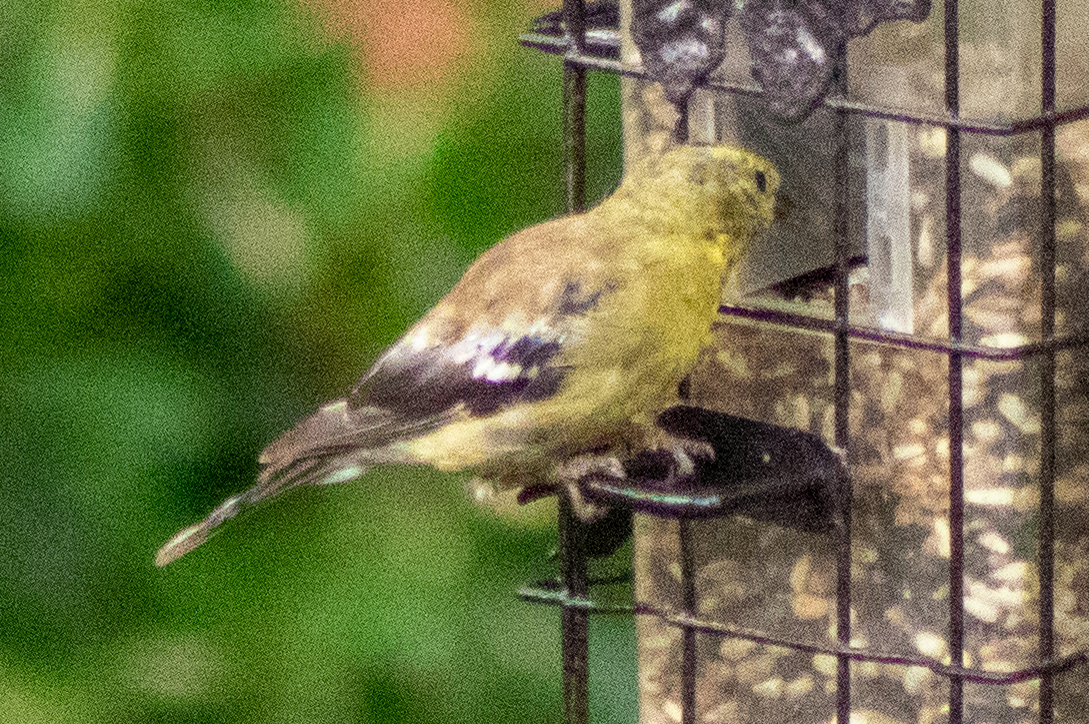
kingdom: Animalia
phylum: Chordata
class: Aves
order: Passeriformes
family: Fringillidae
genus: Spinus
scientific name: Spinus tristis
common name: American goldfinch
